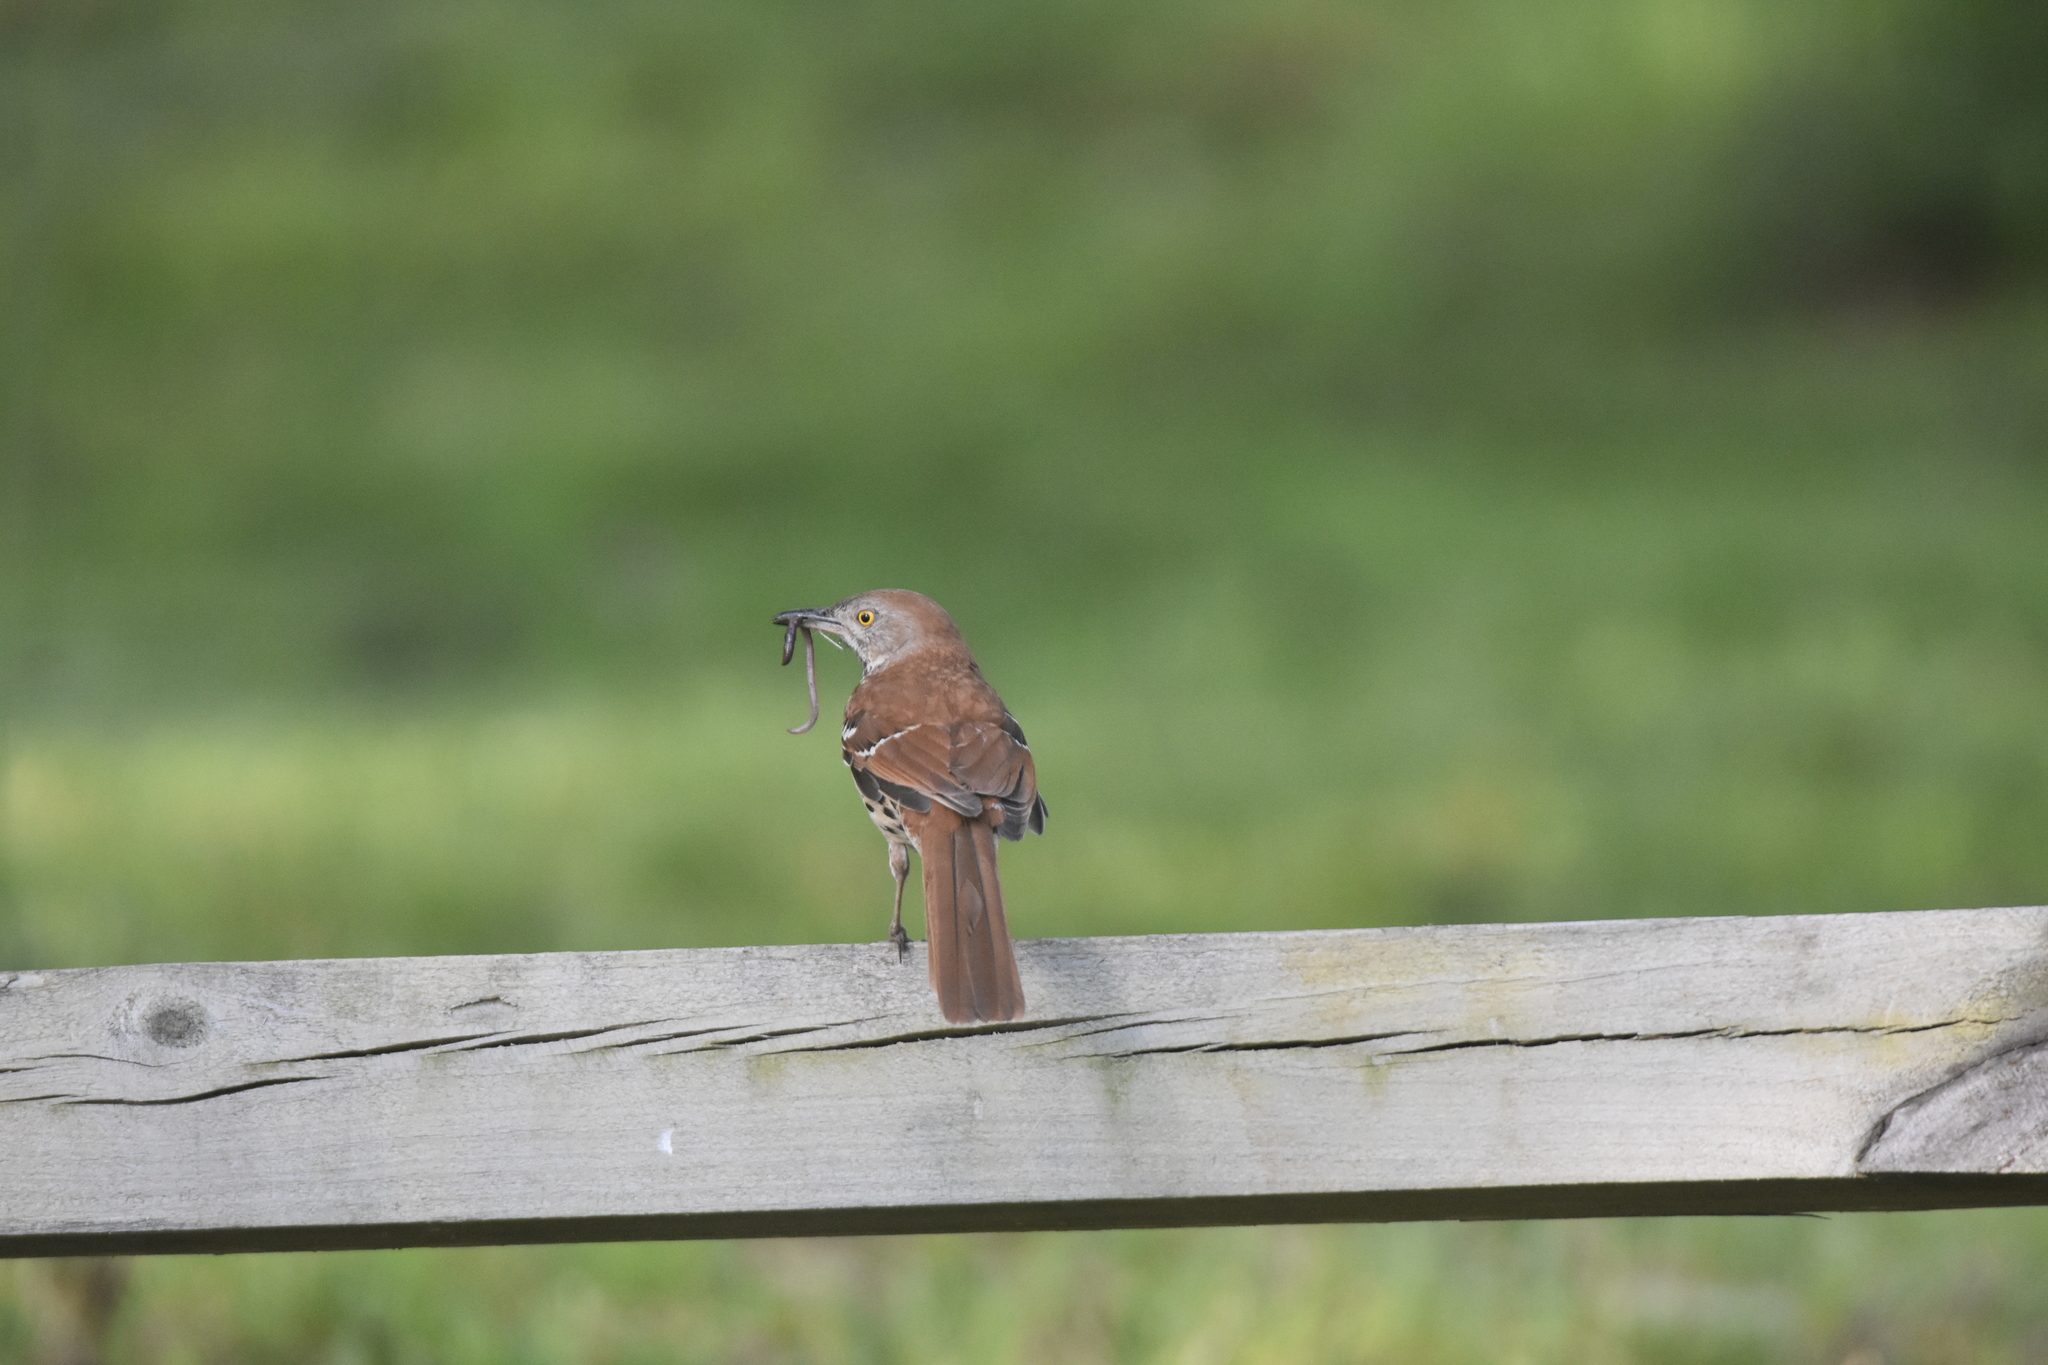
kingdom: Animalia
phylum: Chordata
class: Aves
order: Passeriformes
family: Mimidae
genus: Toxostoma
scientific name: Toxostoma rufum
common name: Brown thrasher
